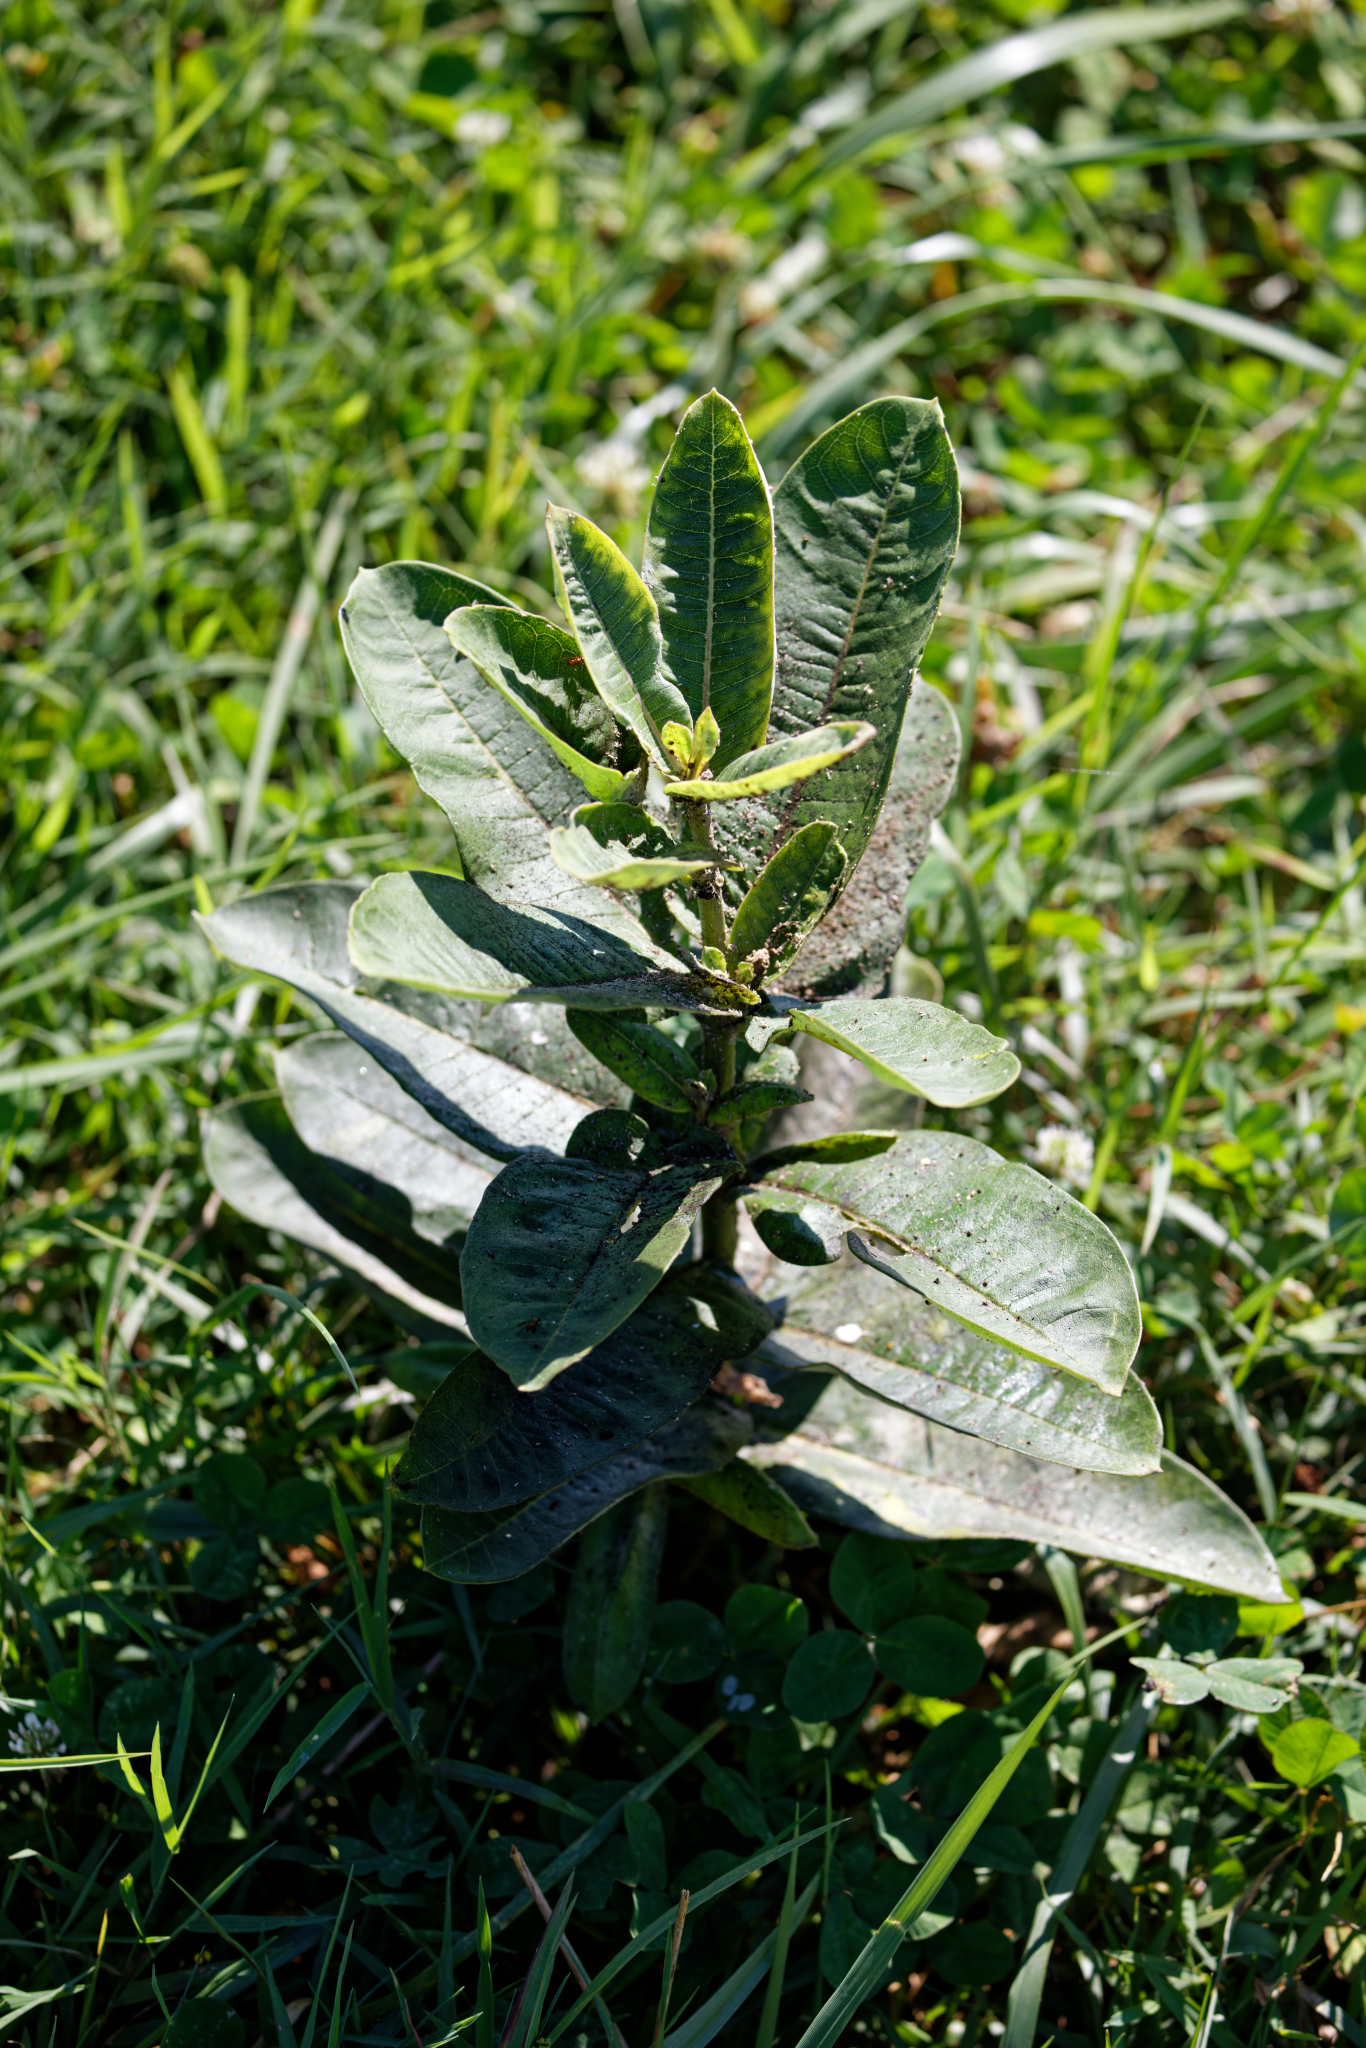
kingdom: Plantae
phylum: Tracheophyta
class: Magnoliopsida
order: Gentianales
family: Apocynaceae
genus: Asclepias
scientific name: Asclepias syriaca
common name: Common milkweed
